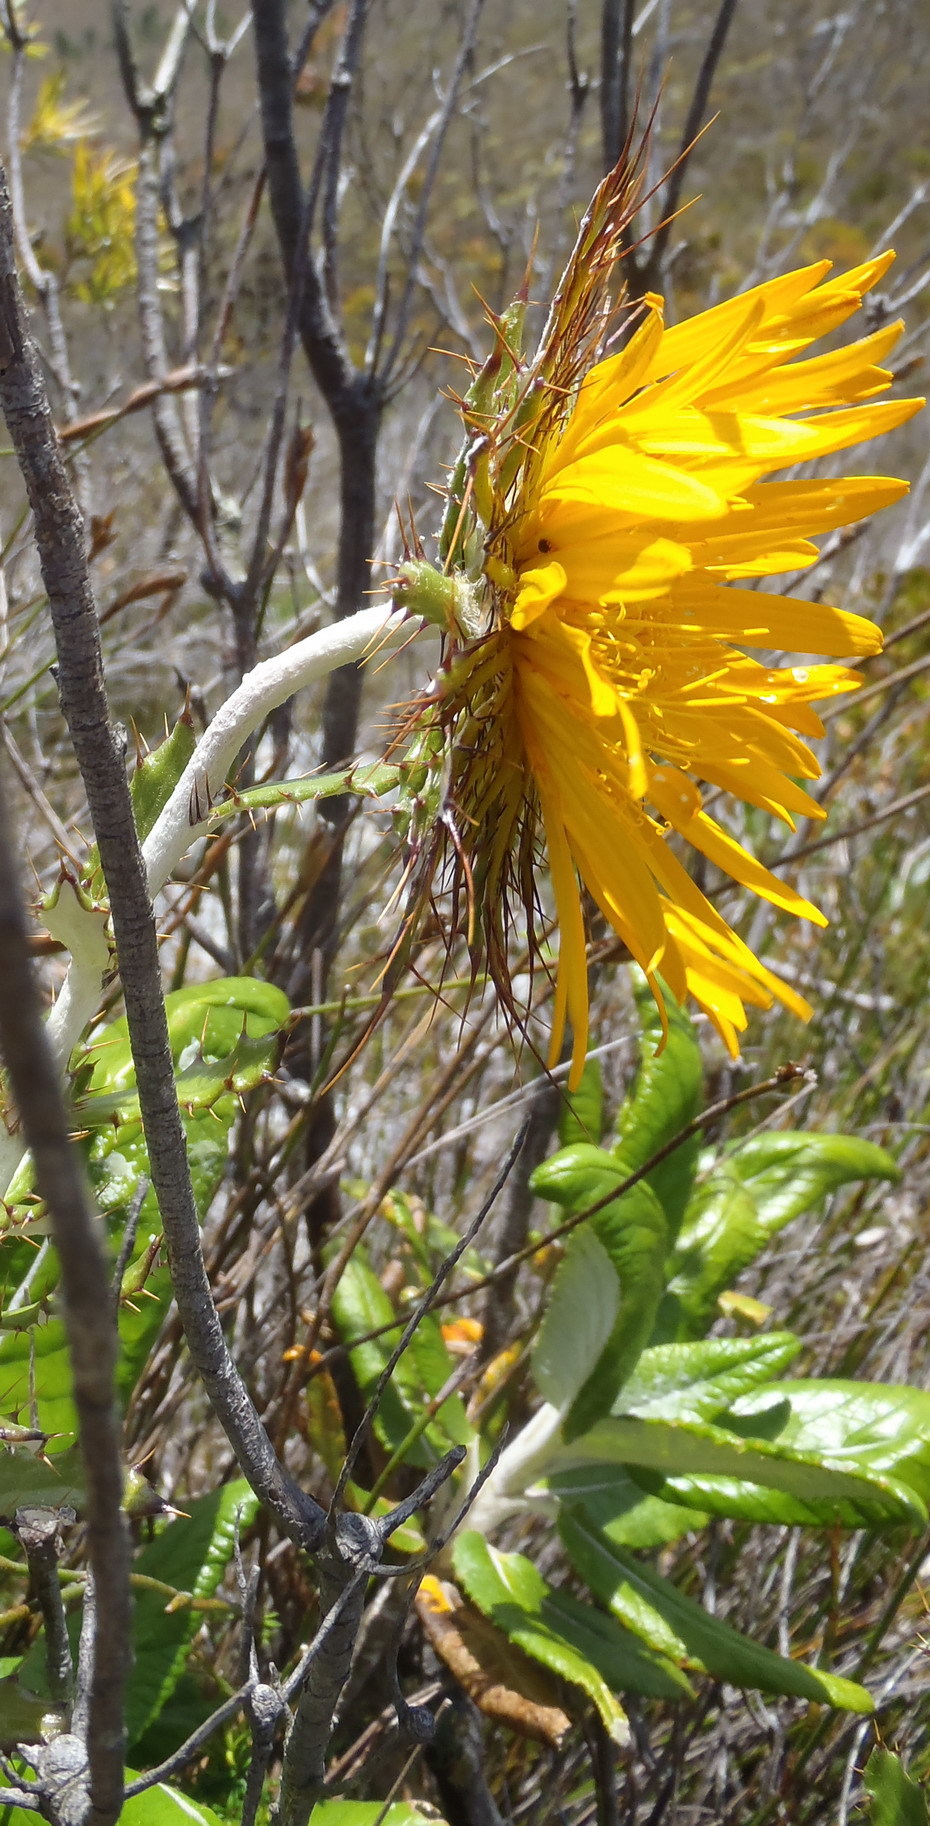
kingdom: Plantae
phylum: Tracheophyta
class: Magnoliopsida
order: Asterales
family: Asteraceae
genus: Berkheya
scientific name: Berkheya barbata
